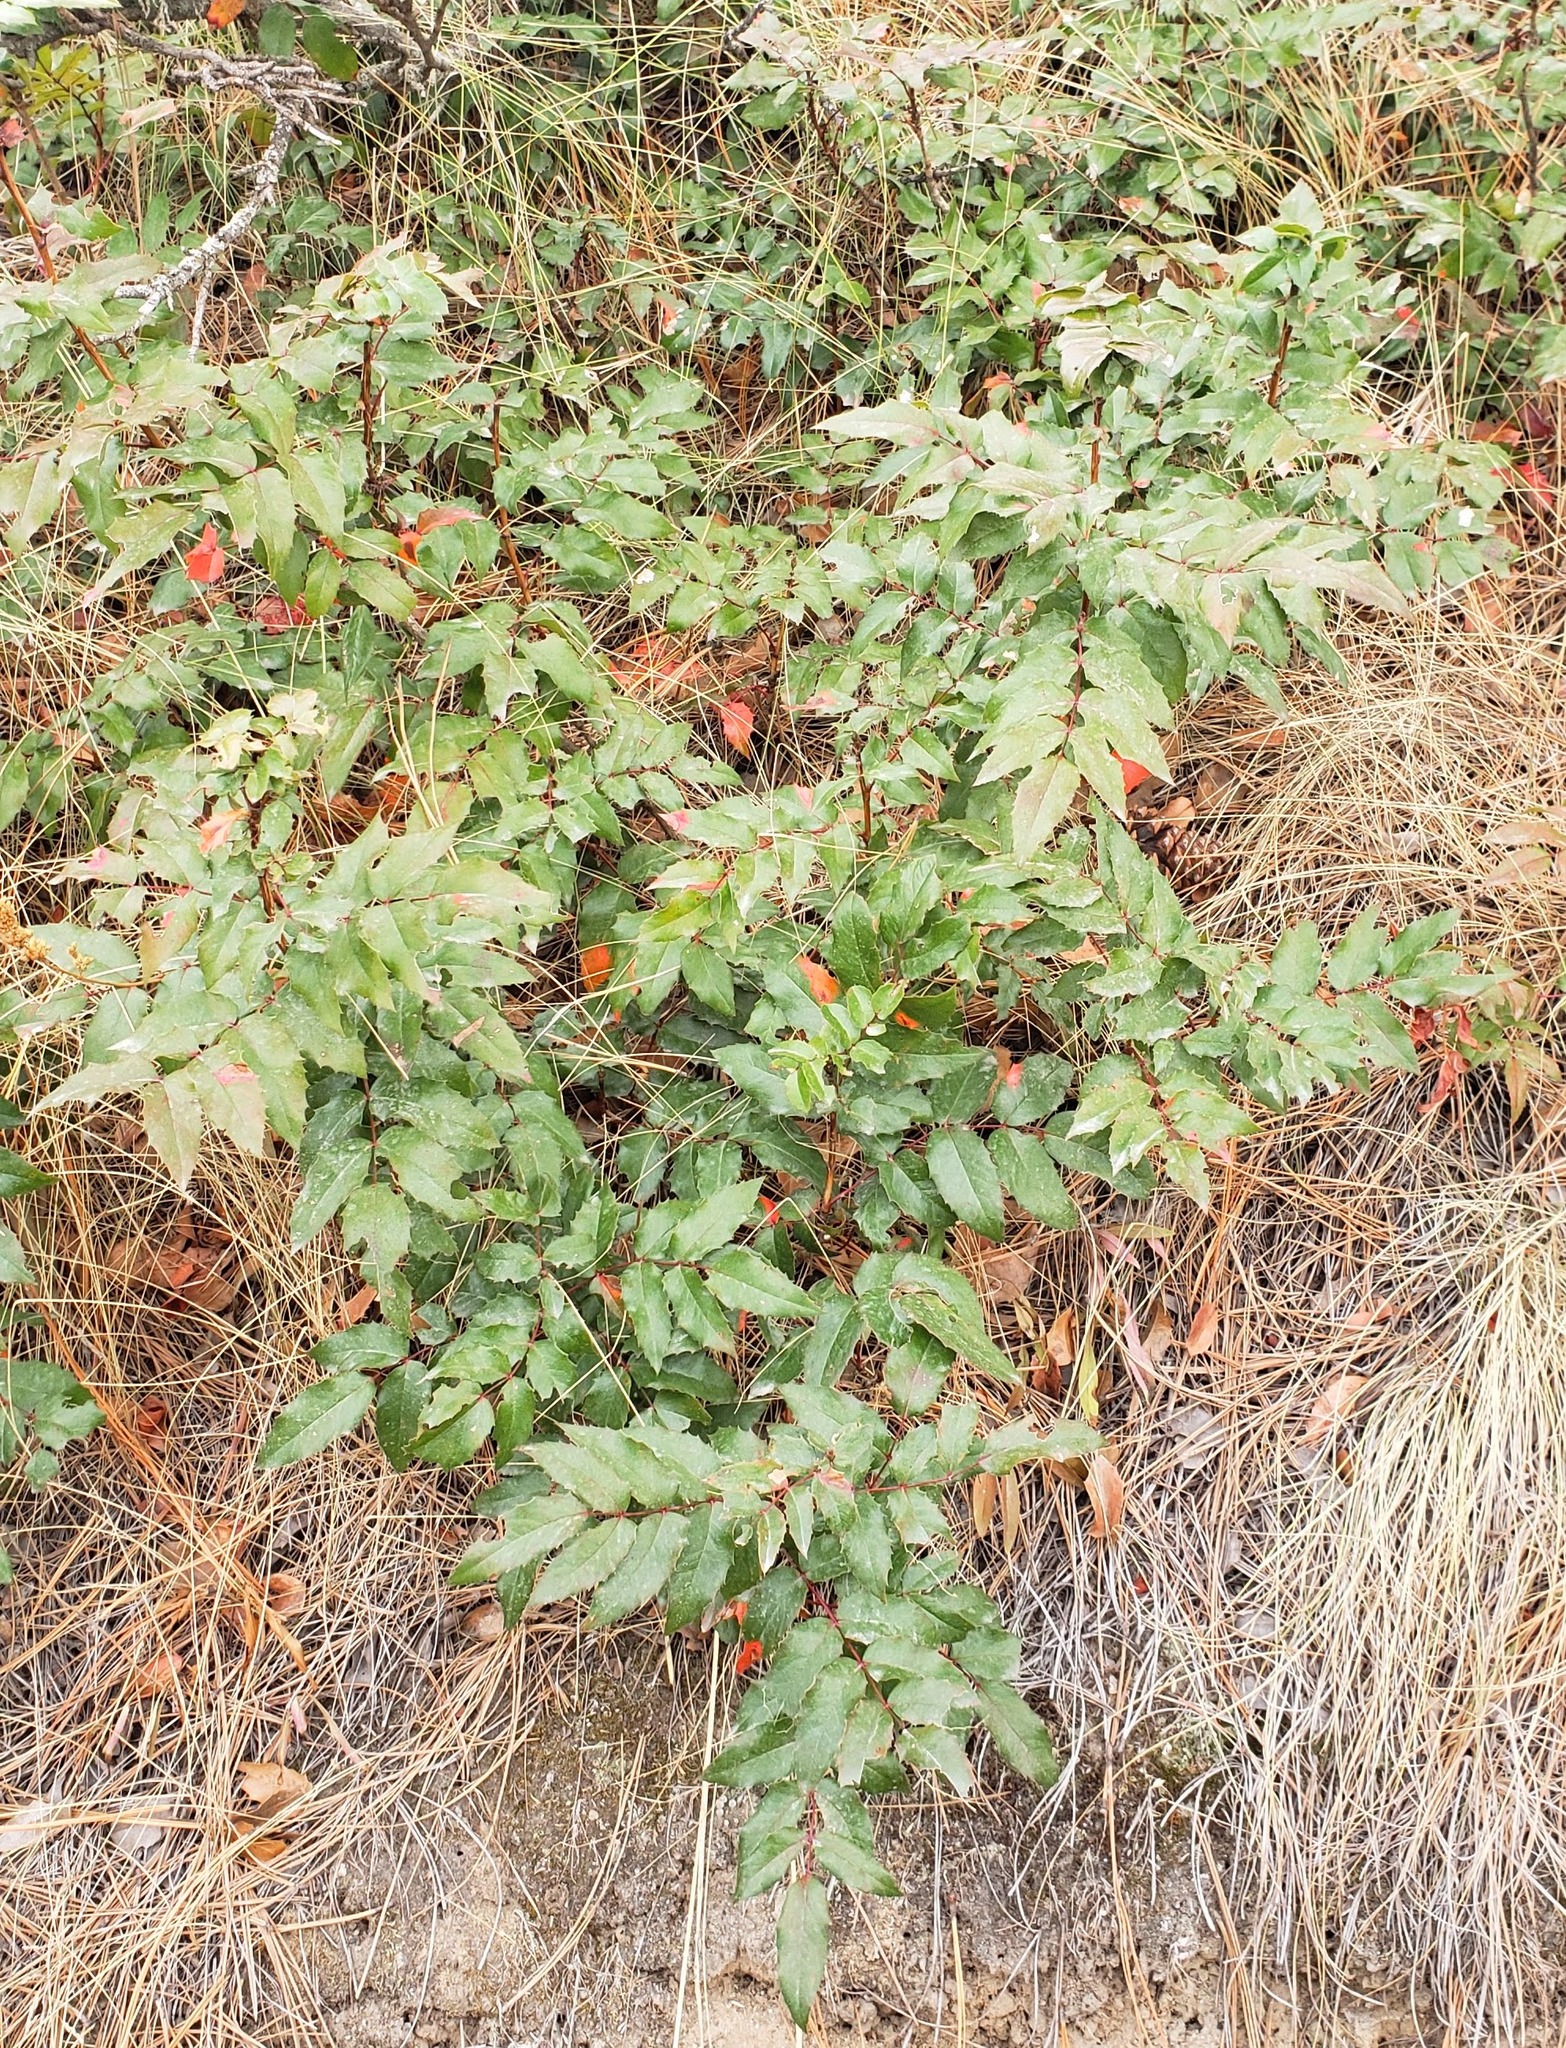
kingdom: Plantae
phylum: Tracheophyta
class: Magnoliopsida
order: Ranunculales
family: Berberidaceae
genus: Mahonia
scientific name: Mahonia aquifolium
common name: Oregon-grape
